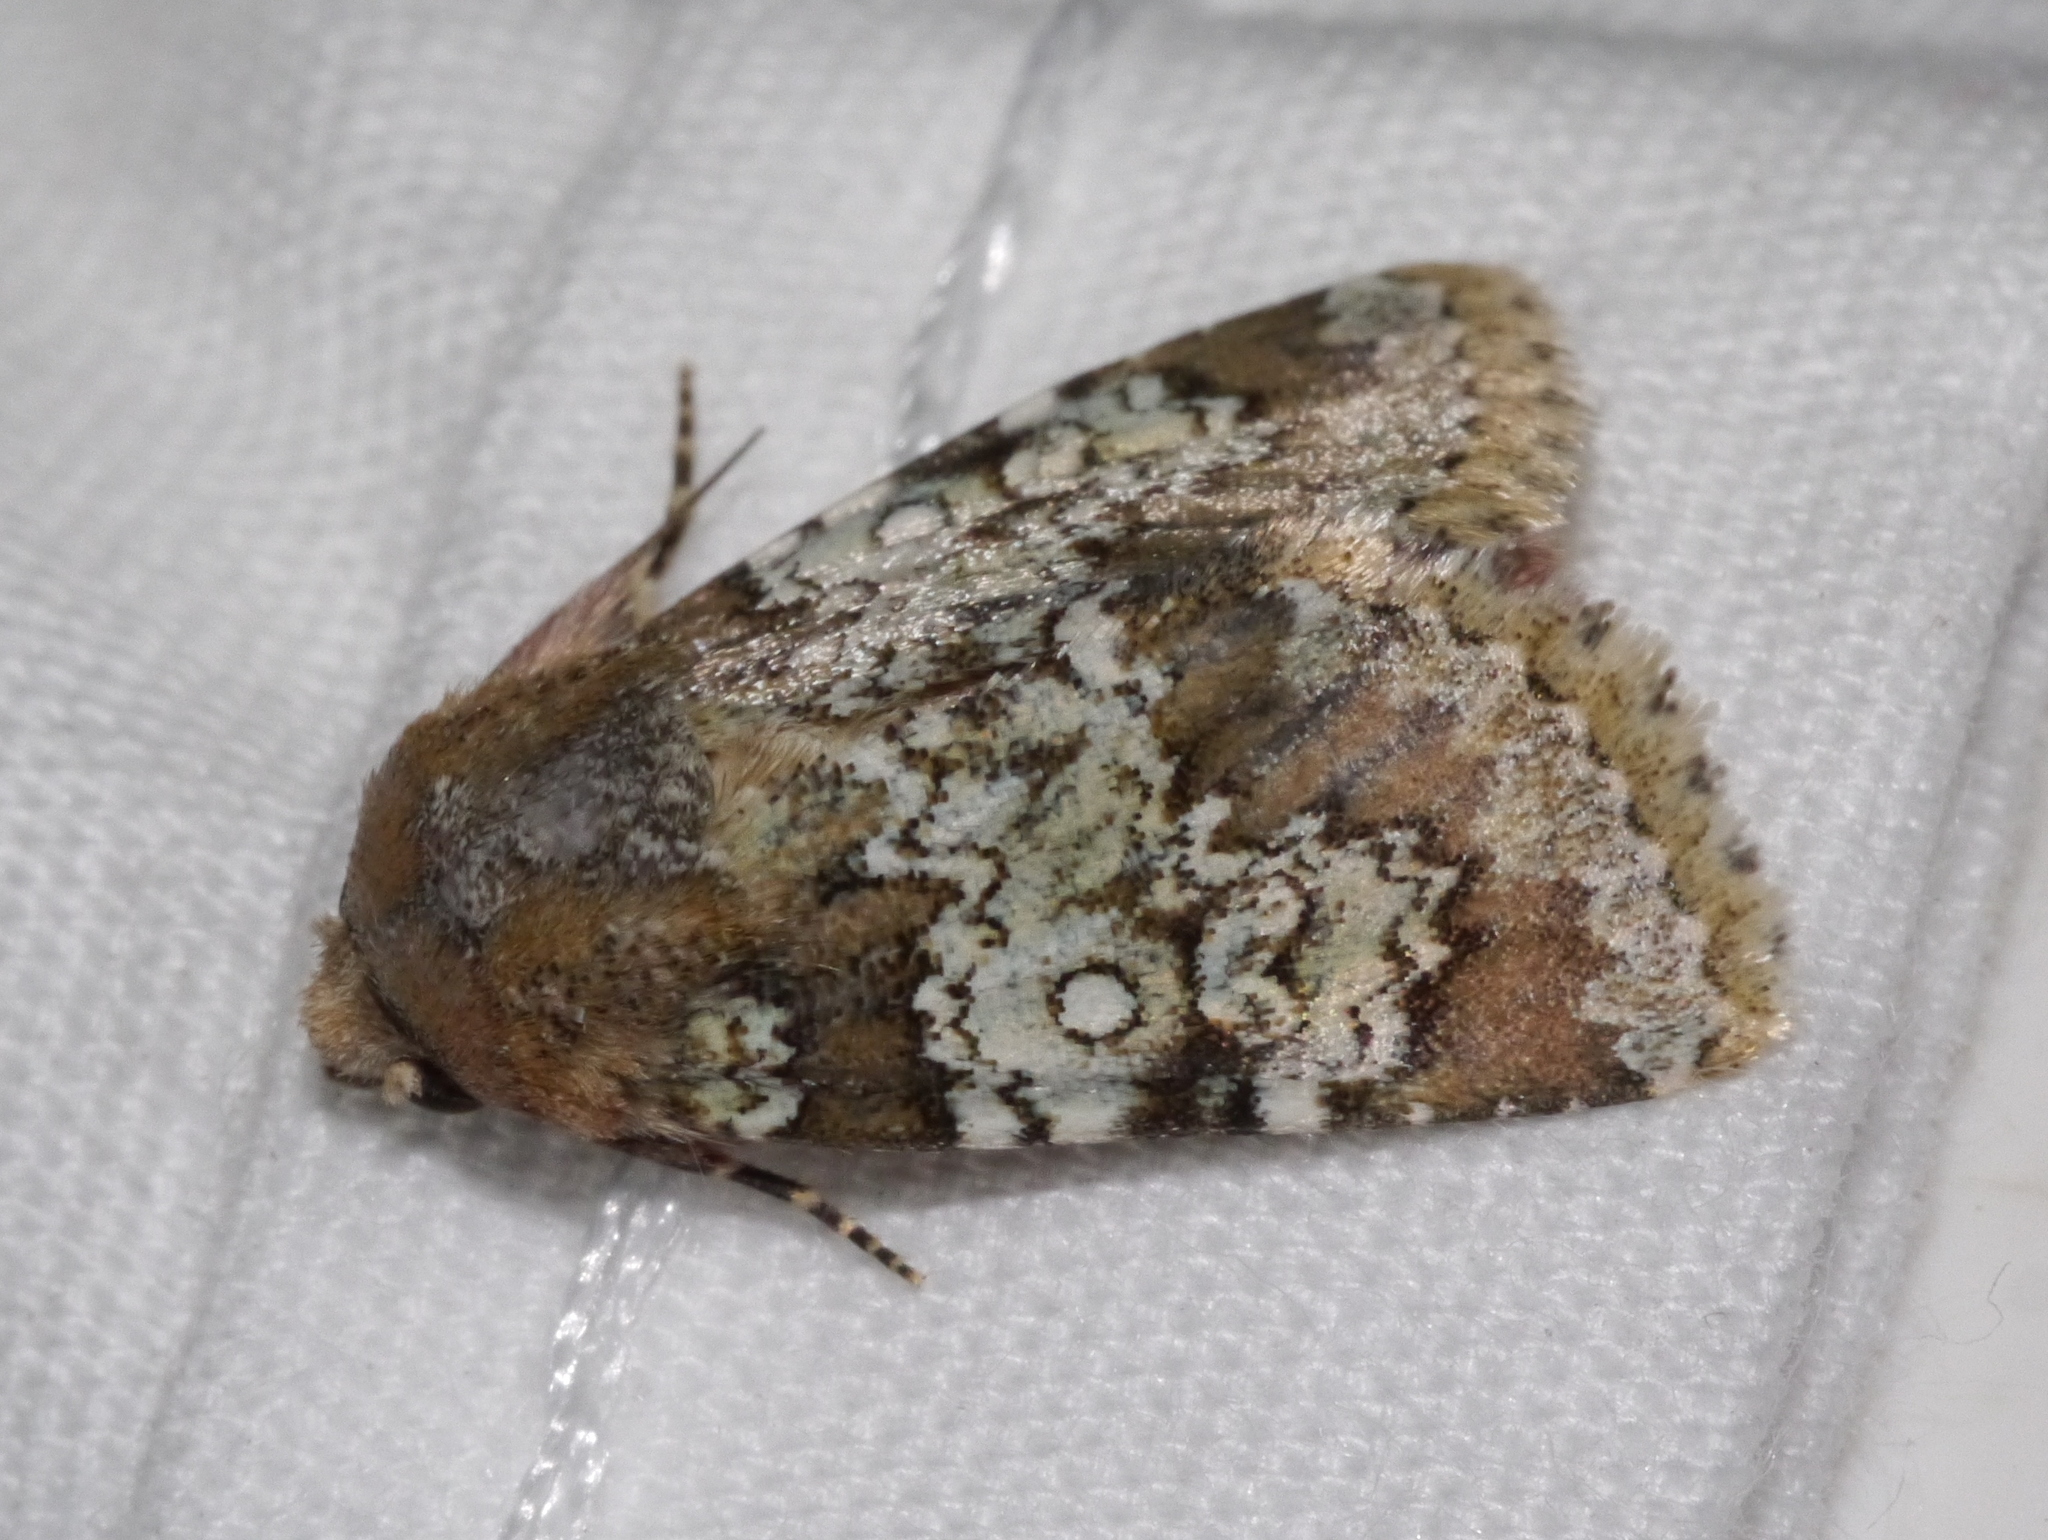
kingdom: Animalia
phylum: Arthropoda
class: Insecta
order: Lepidoptera
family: Noctuidae
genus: Hemibryomima
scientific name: Hemibryomima chryselectra
